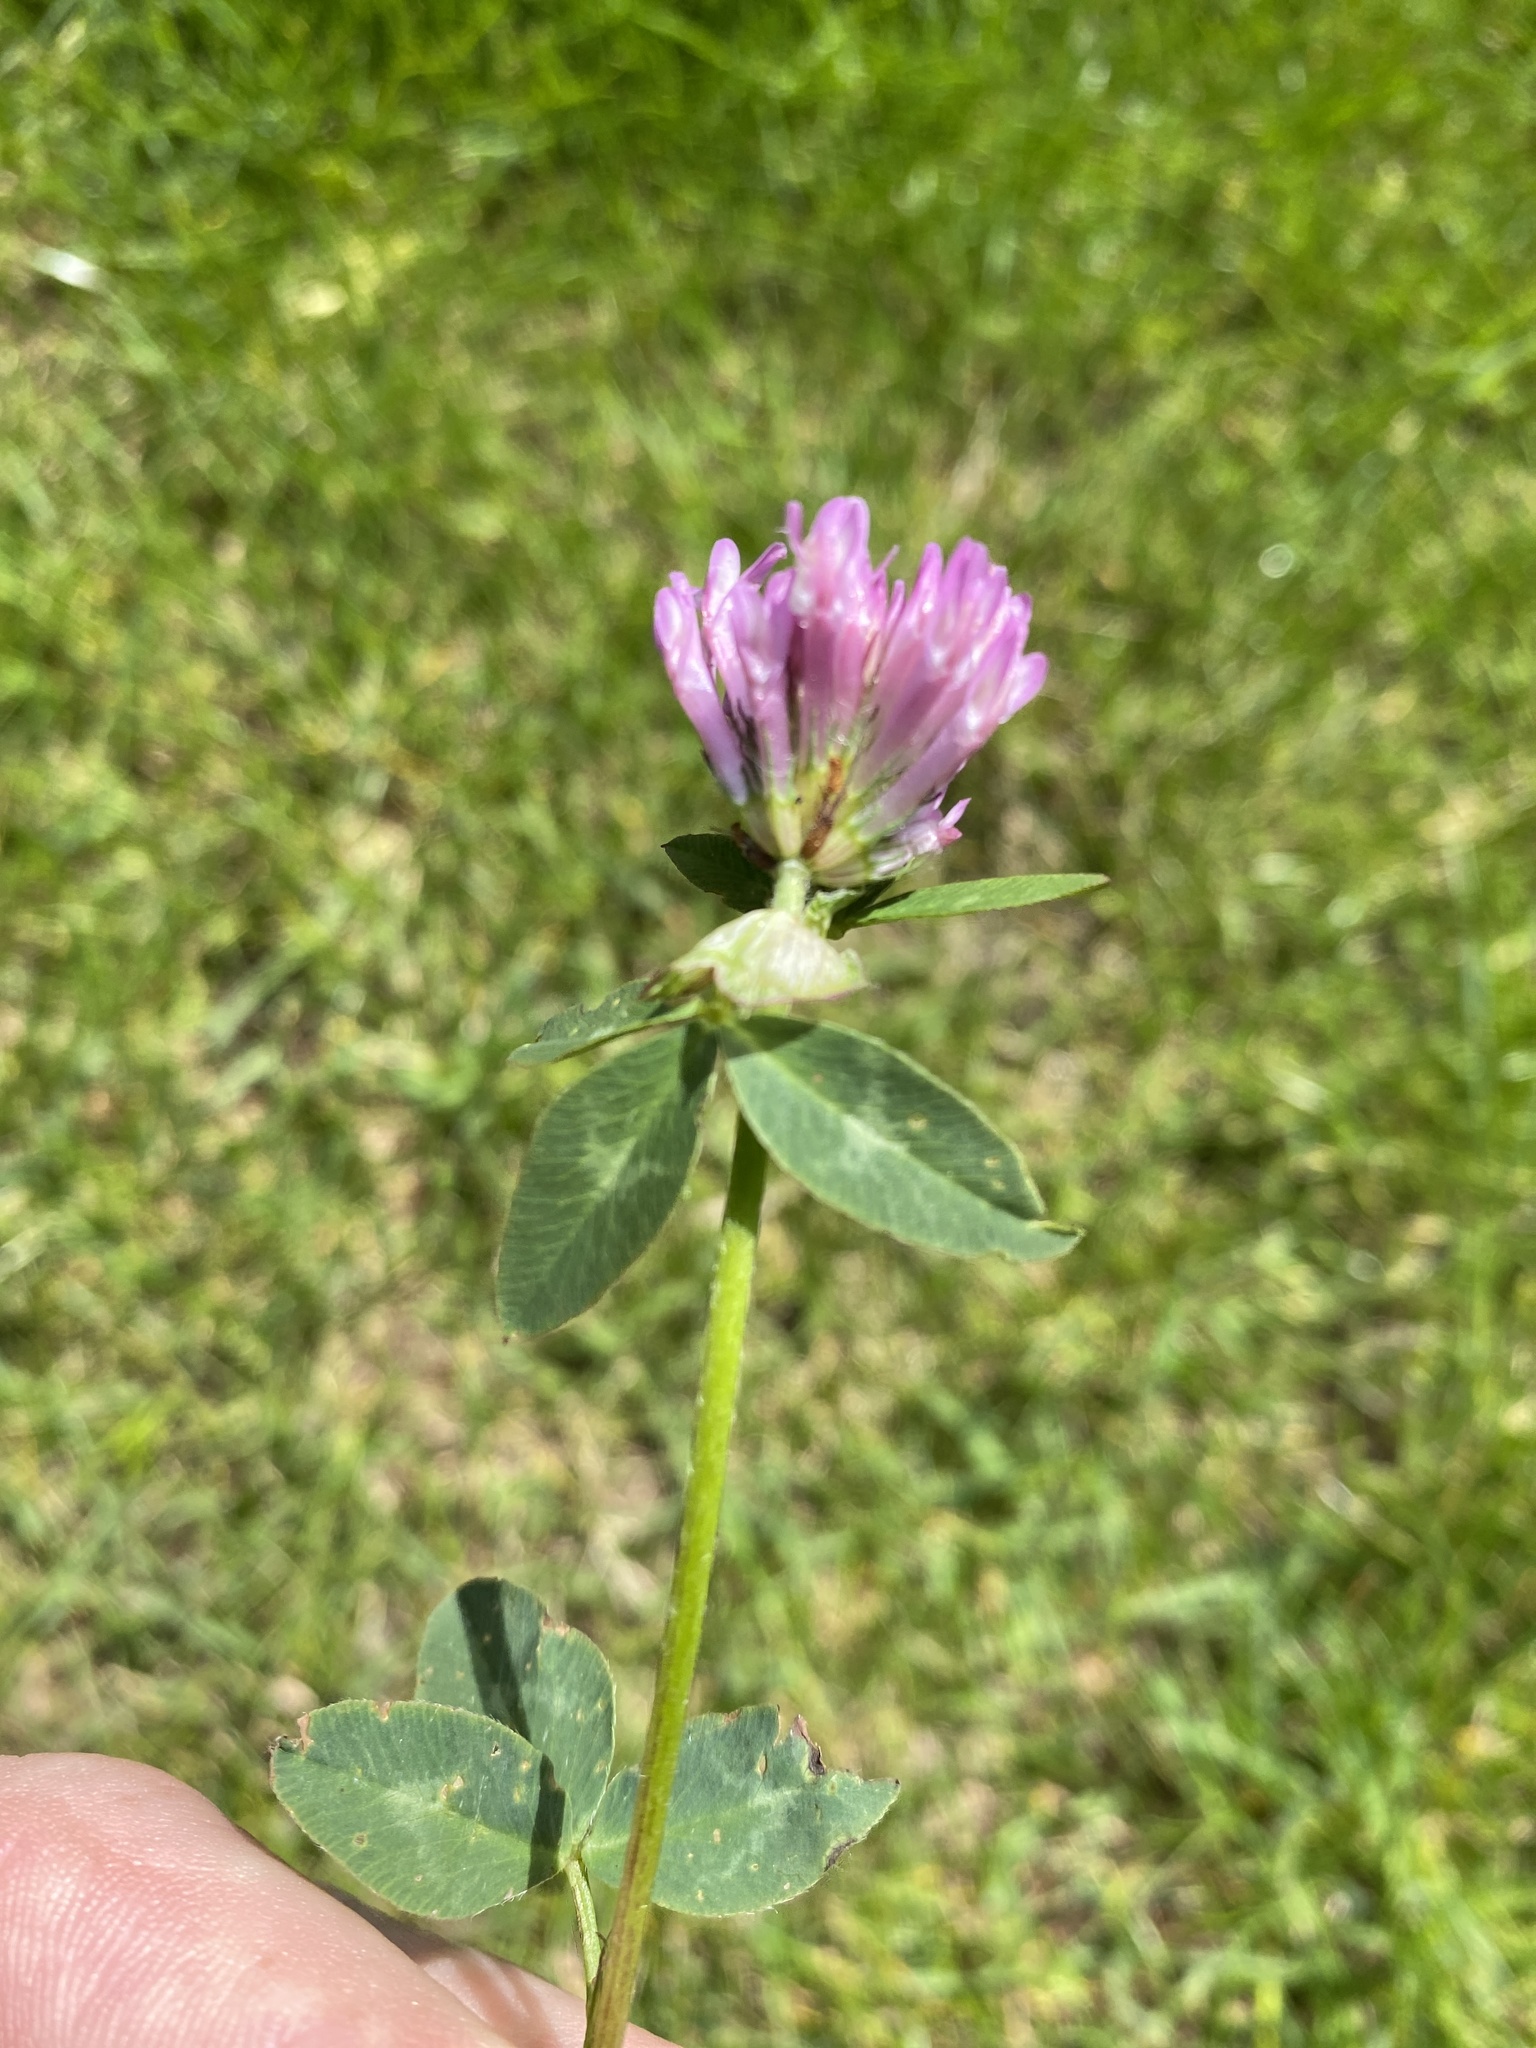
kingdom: Plantae
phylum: Tracheophyta
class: Magnoliopsida
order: Fabales
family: Fabaceae
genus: Trifolium
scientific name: Trifolium pratense
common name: Red clover
